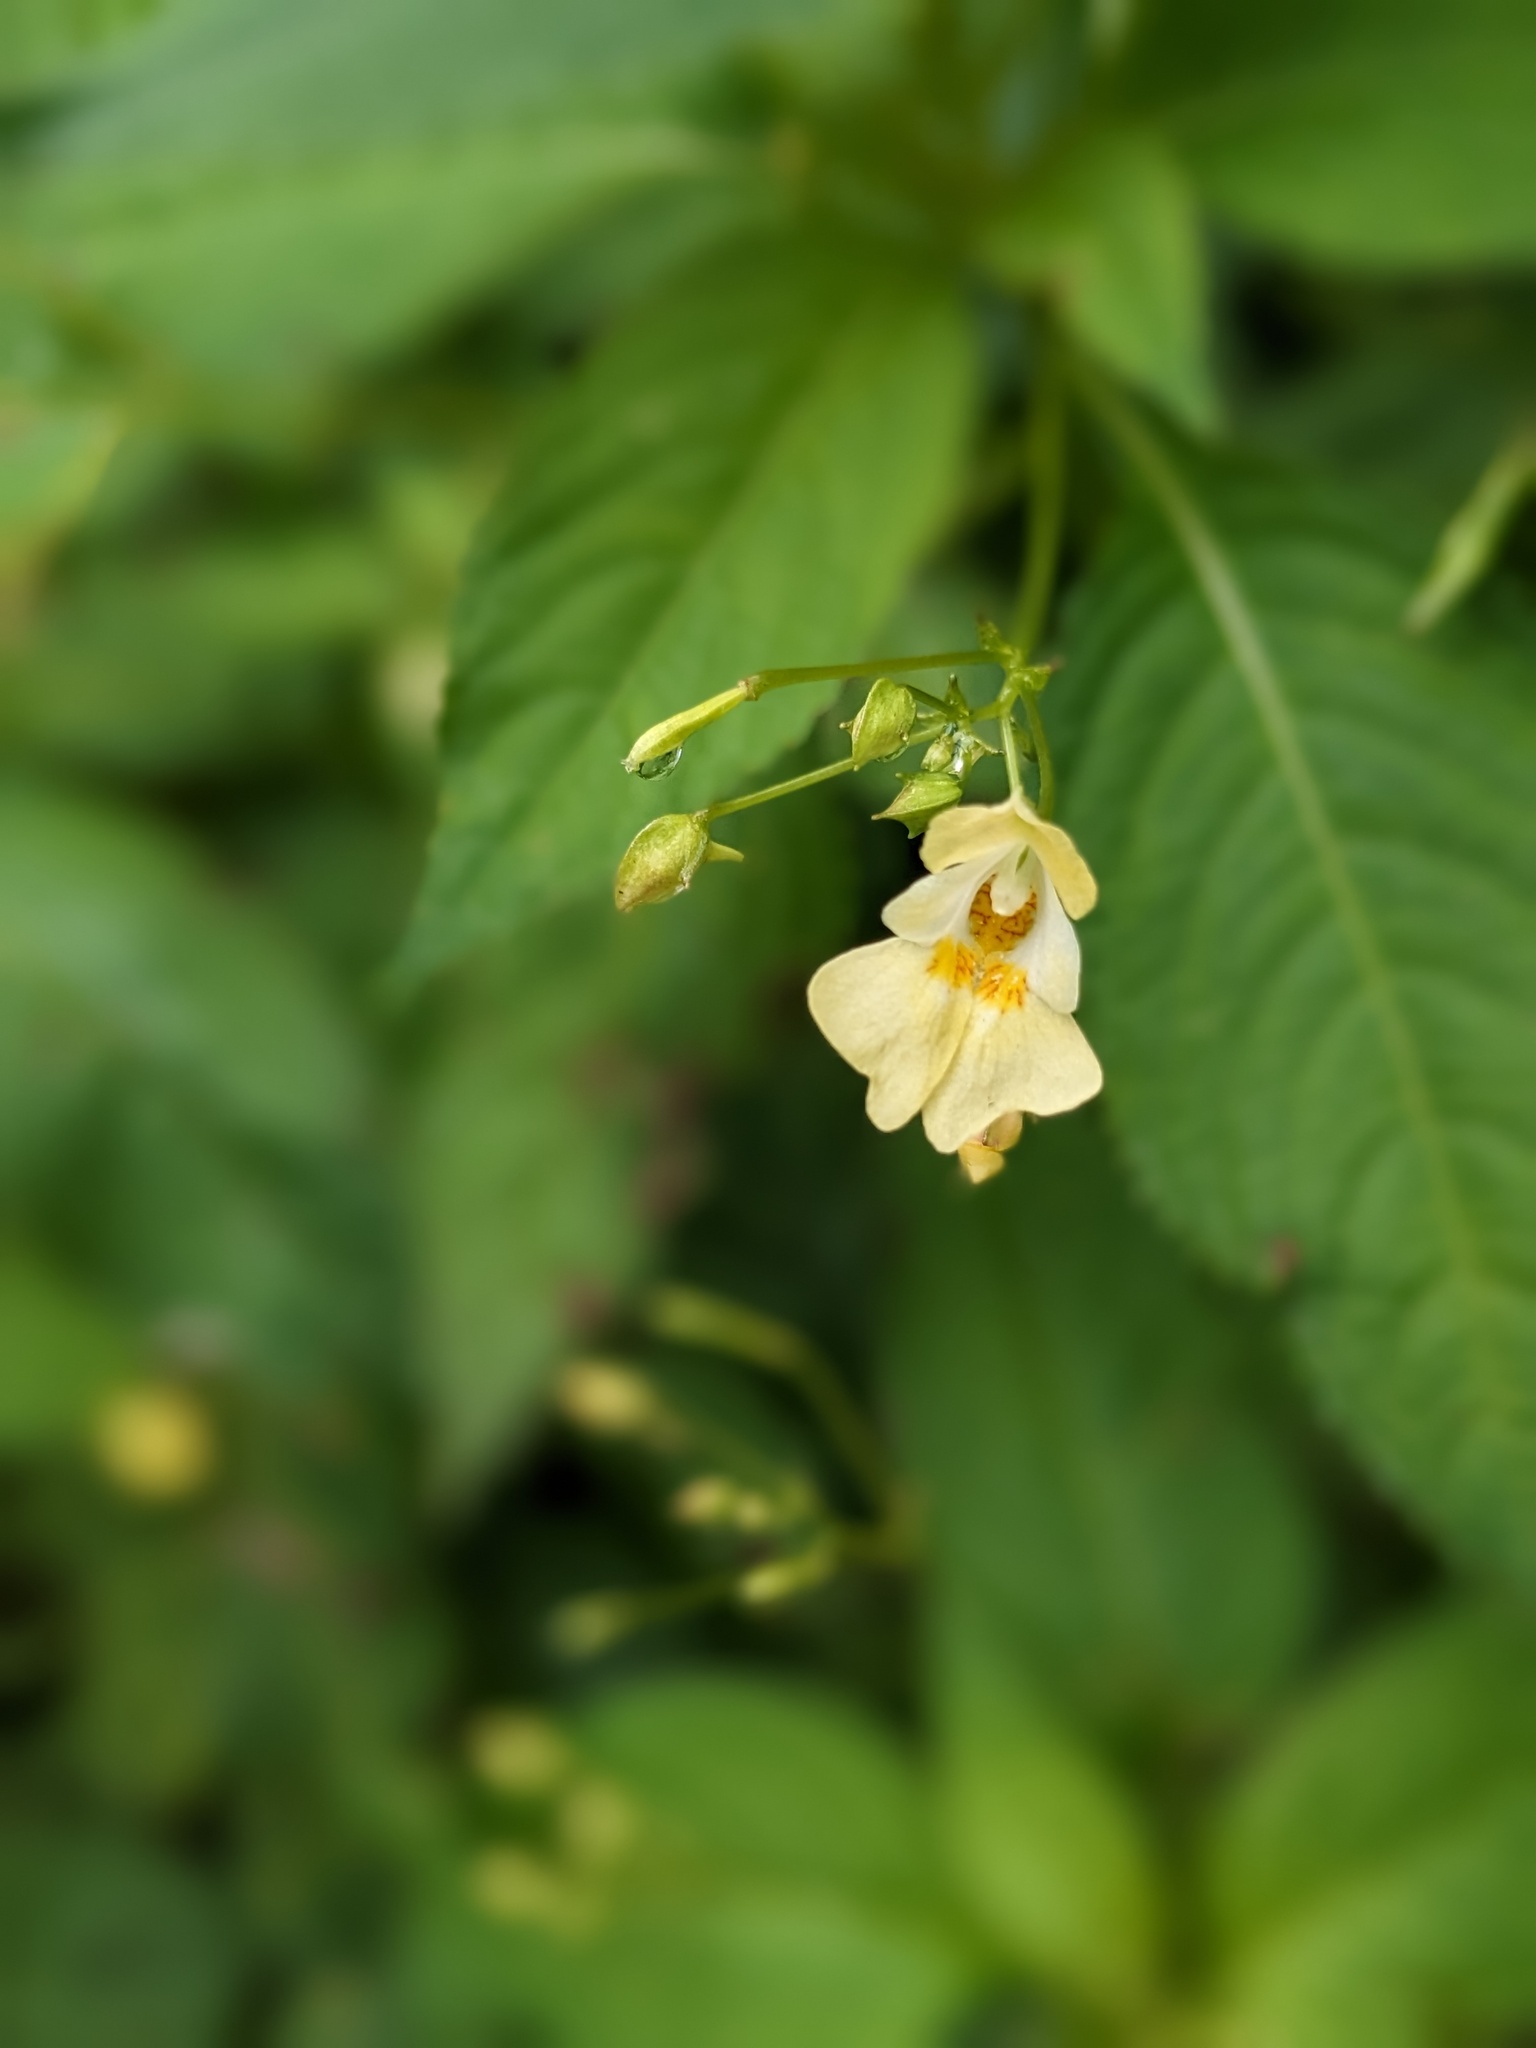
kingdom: Plantae
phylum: Tracheophyta
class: Magnoliopsida
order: Ericales
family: Balsaminaceae
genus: Impatiens
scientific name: Impatiens parviflora
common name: Small balsam
